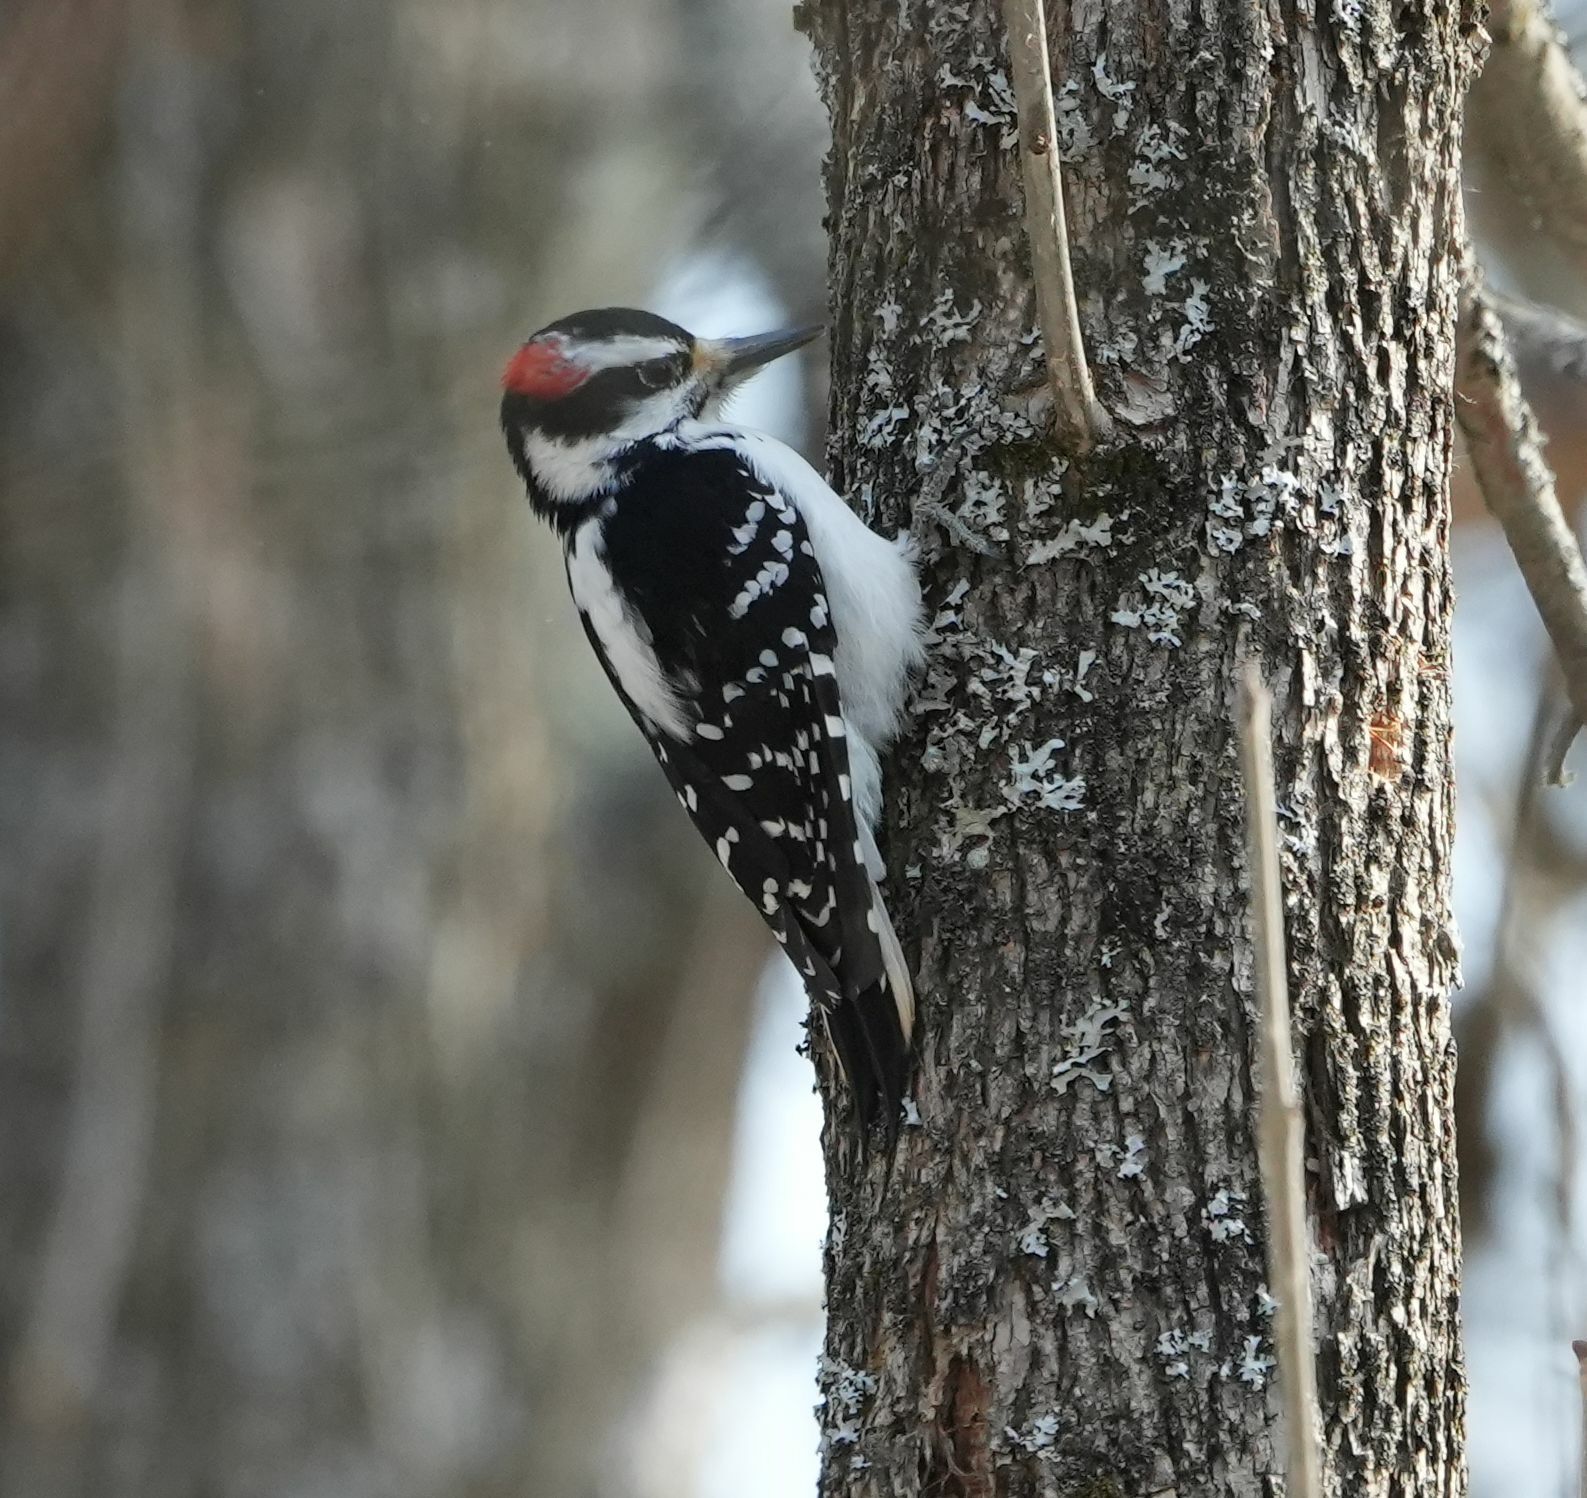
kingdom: Animalia
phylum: Chordata
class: Aves
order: Piciformes
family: Picidae
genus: Leuconotopicus
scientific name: Leuconotopicus villosus
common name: Hairy woodpecker
